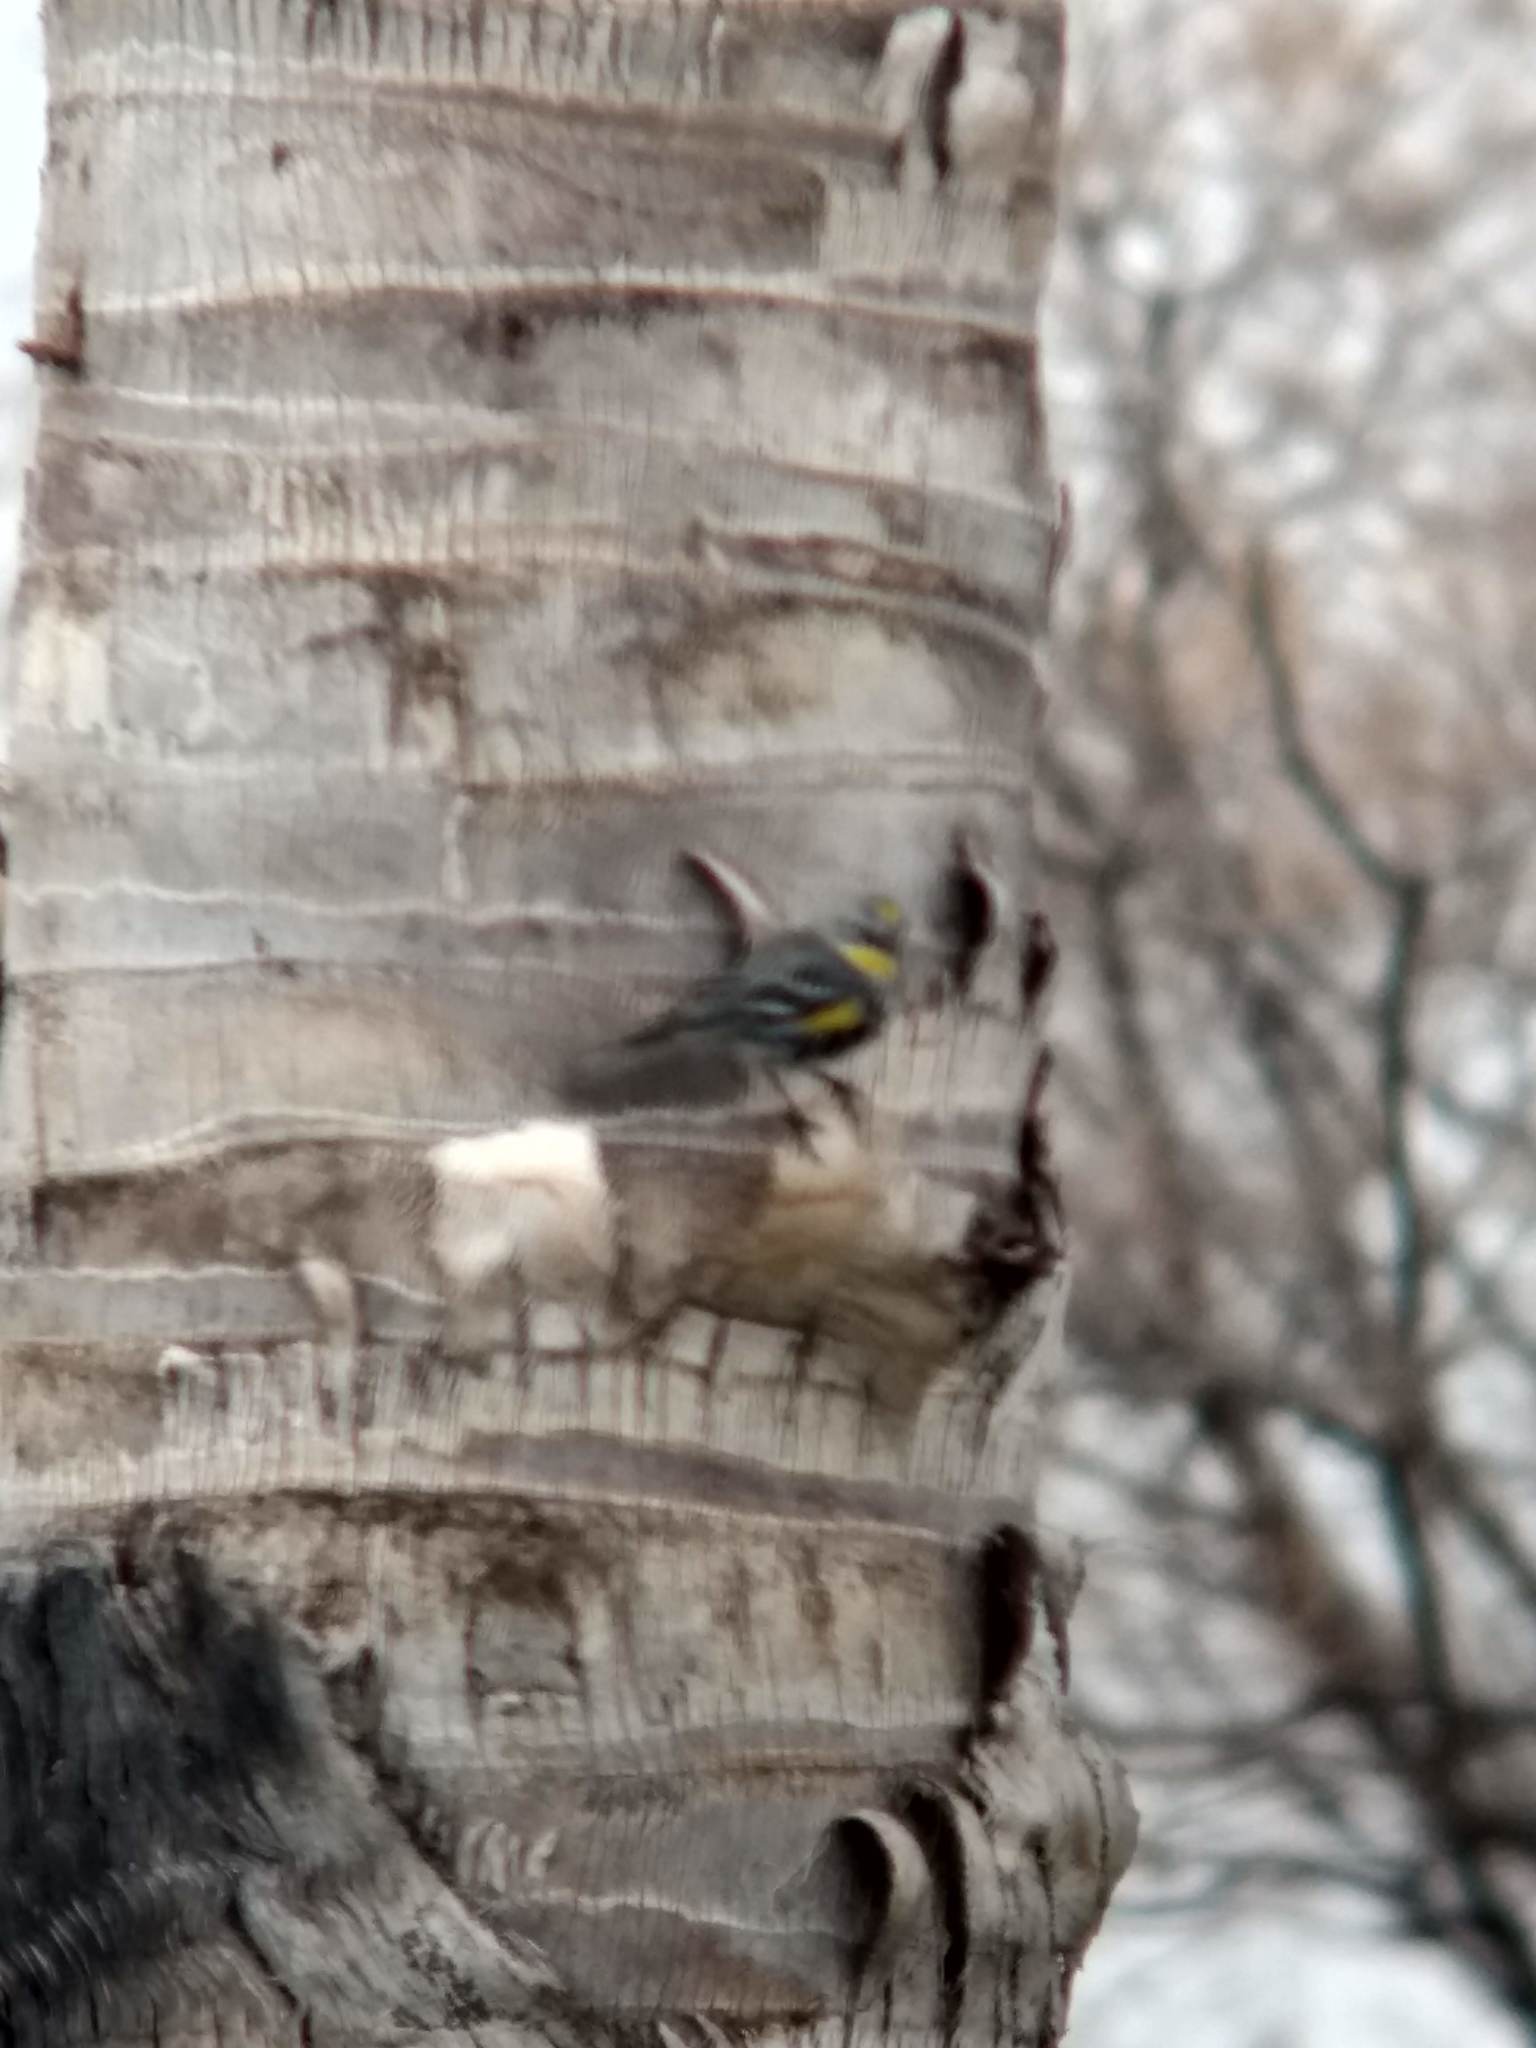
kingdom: Animalia
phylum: Chordata
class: Aves
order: Passeriformes
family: Parulidae
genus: Setophaga
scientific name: Setophaga coronata
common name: Myrtle warbler
